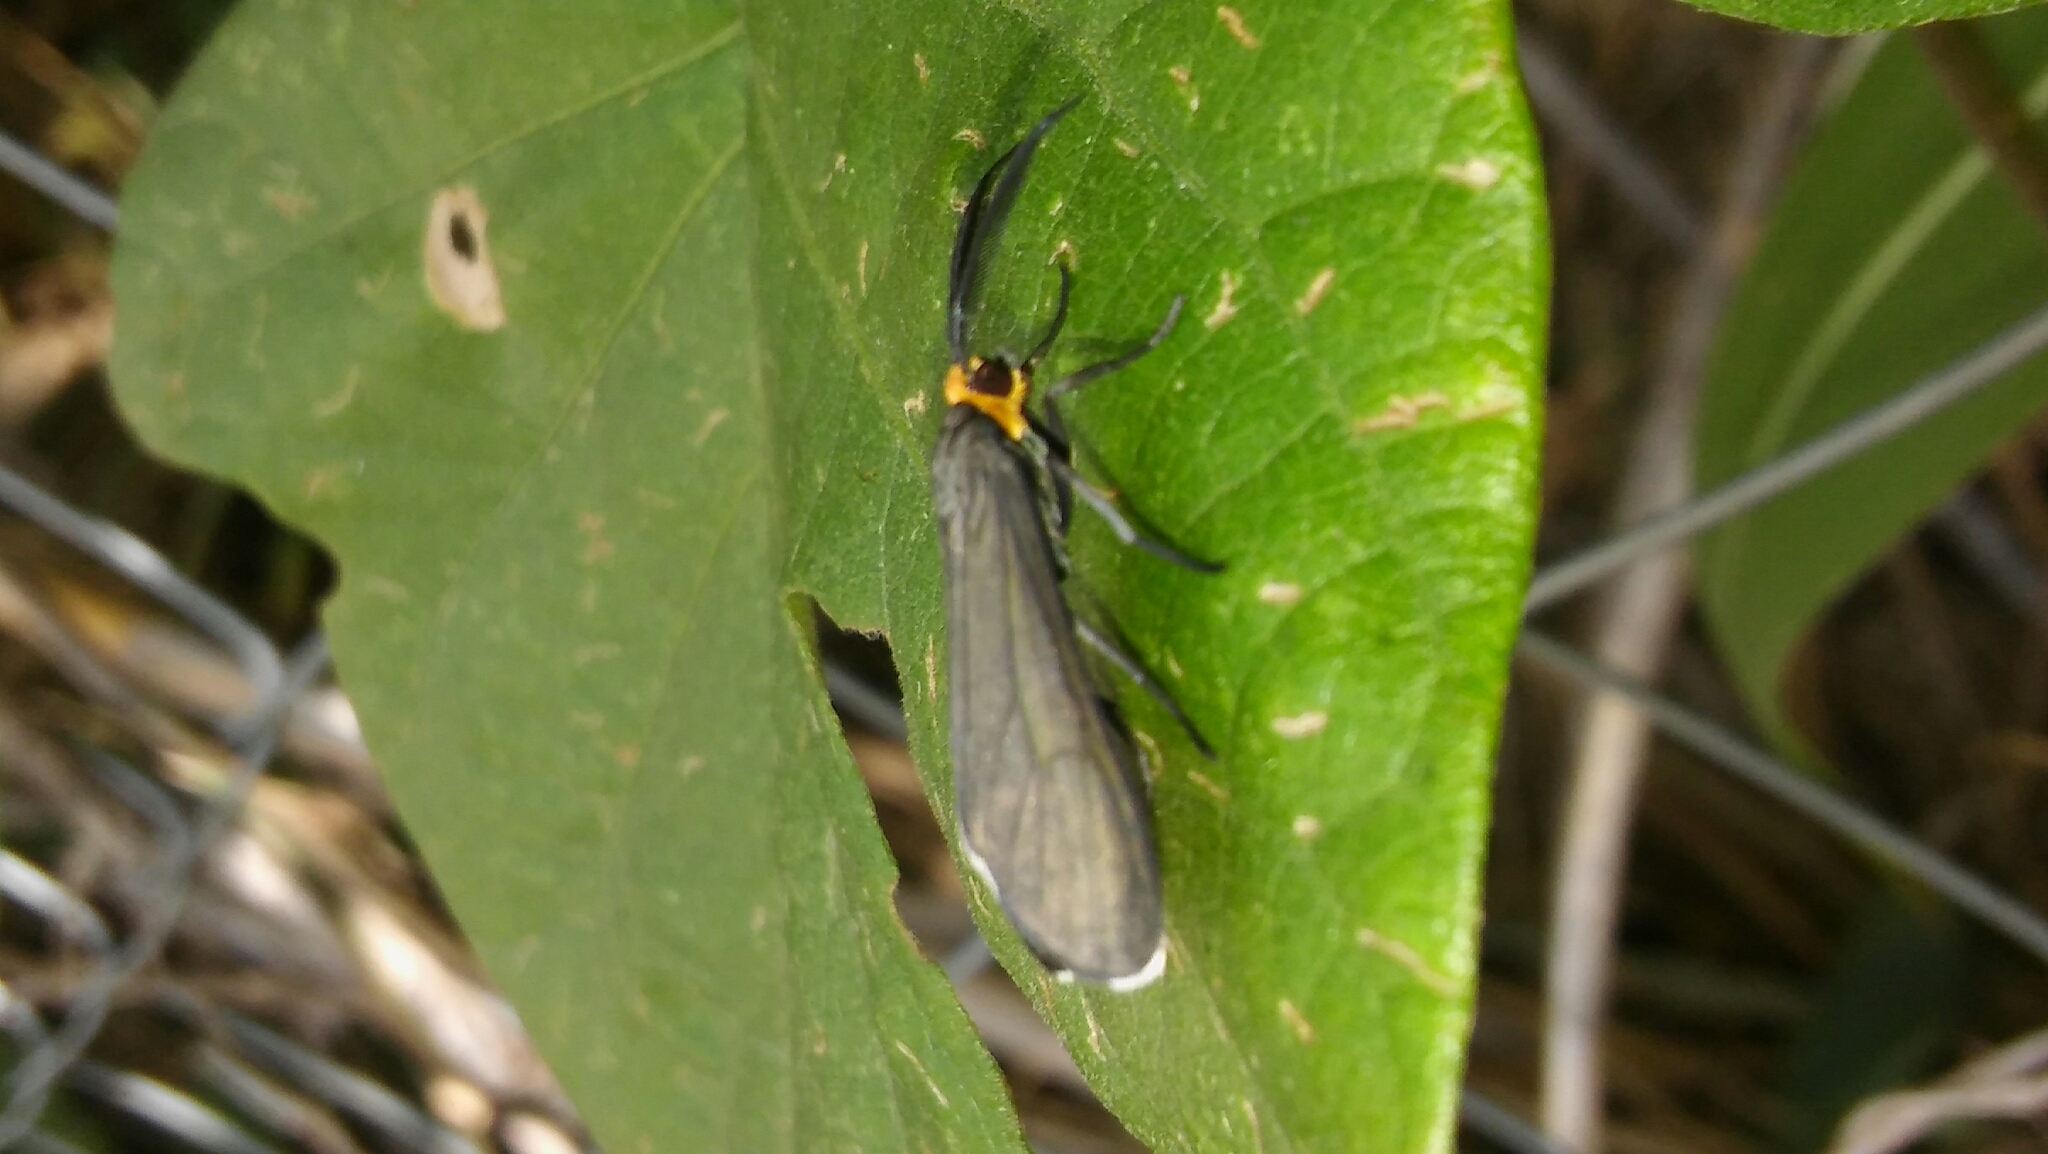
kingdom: Animalia
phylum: Arthropoda
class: Insecta
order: Lepidoptera
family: Erebidae
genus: Ctenucha
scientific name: Ctenucha rubriceps
